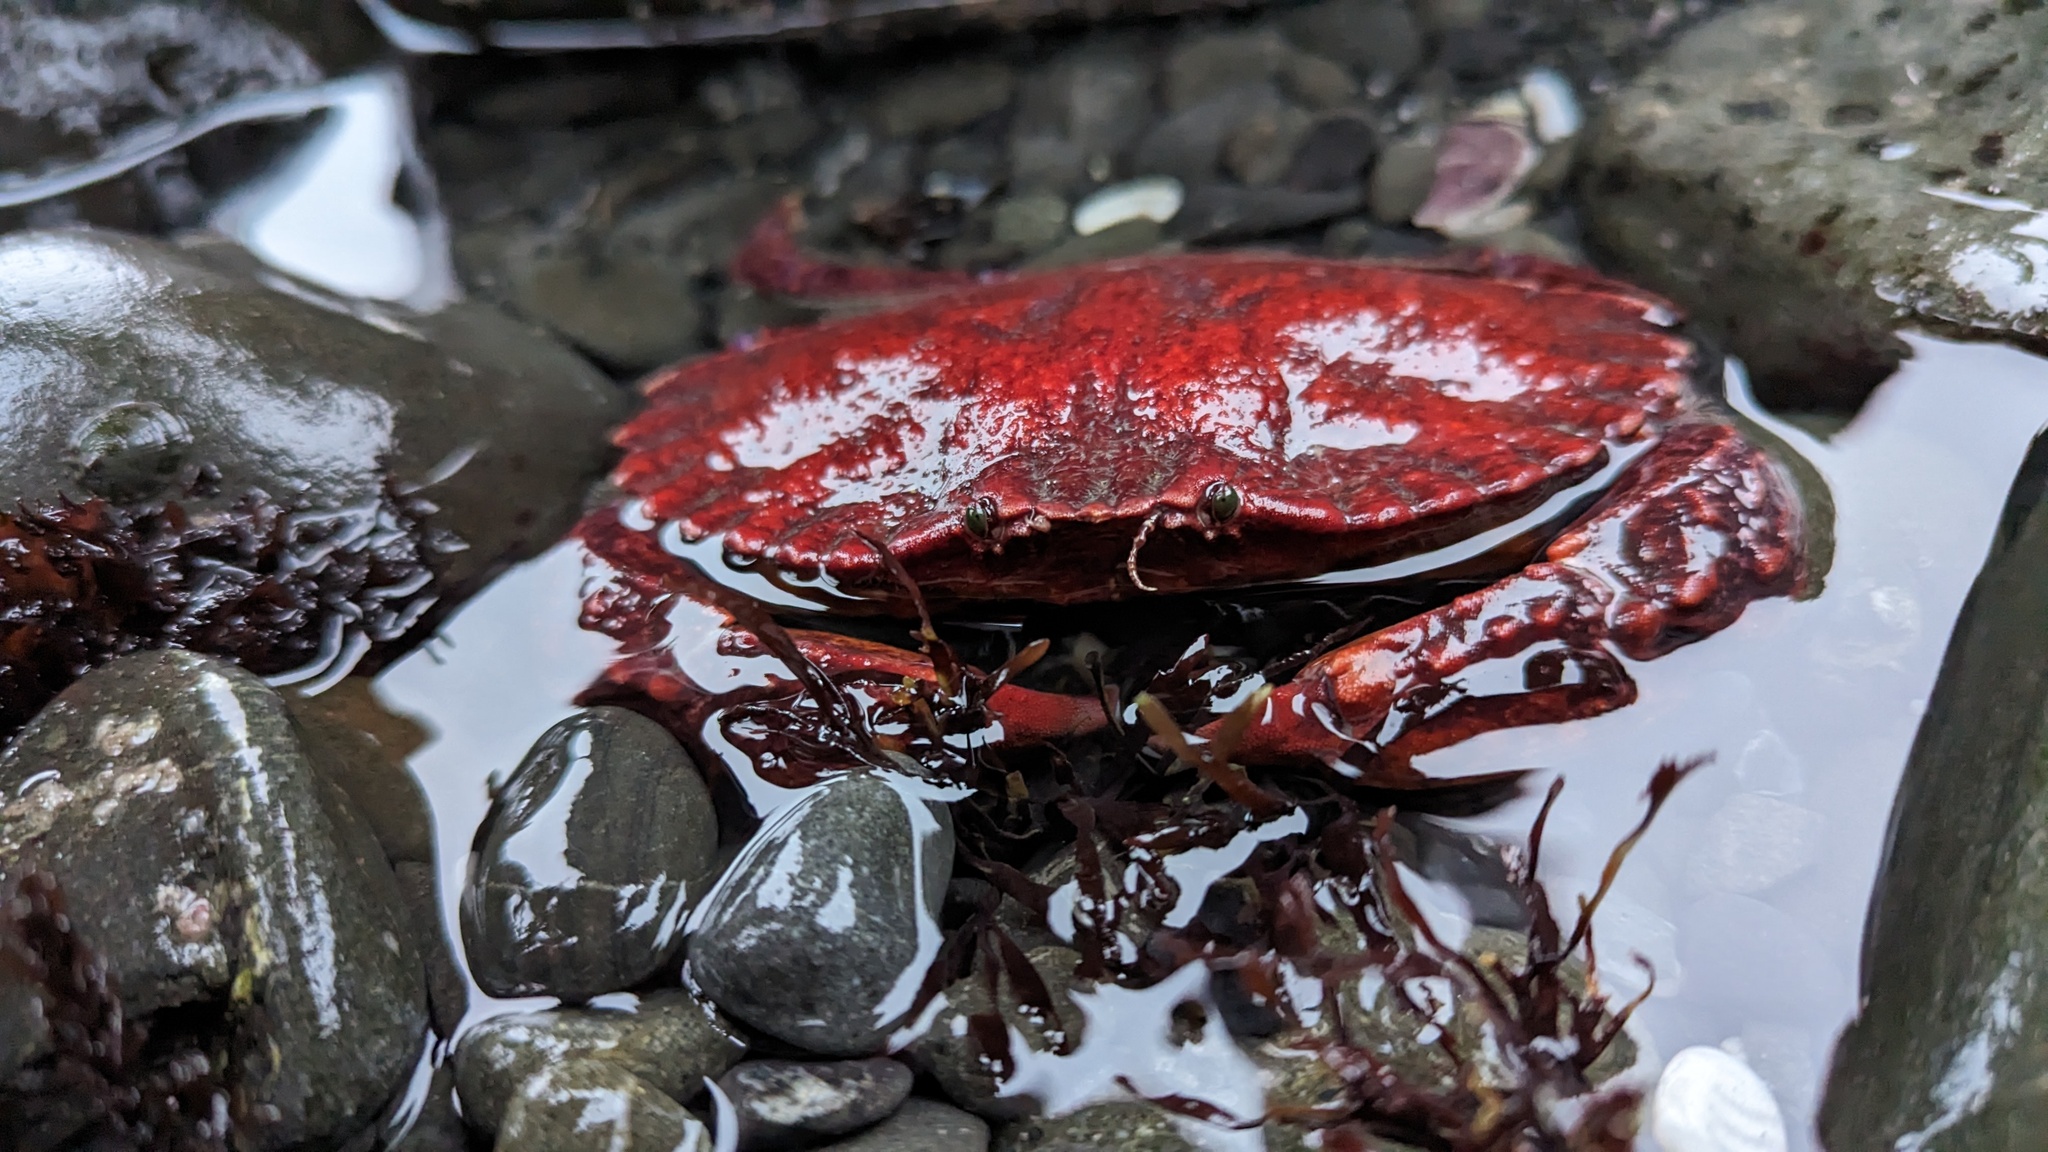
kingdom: Animalia
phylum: Arthropoda
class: Malacostraca
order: Decapoda
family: Cancridae
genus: Cancer
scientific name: Cancer productus
